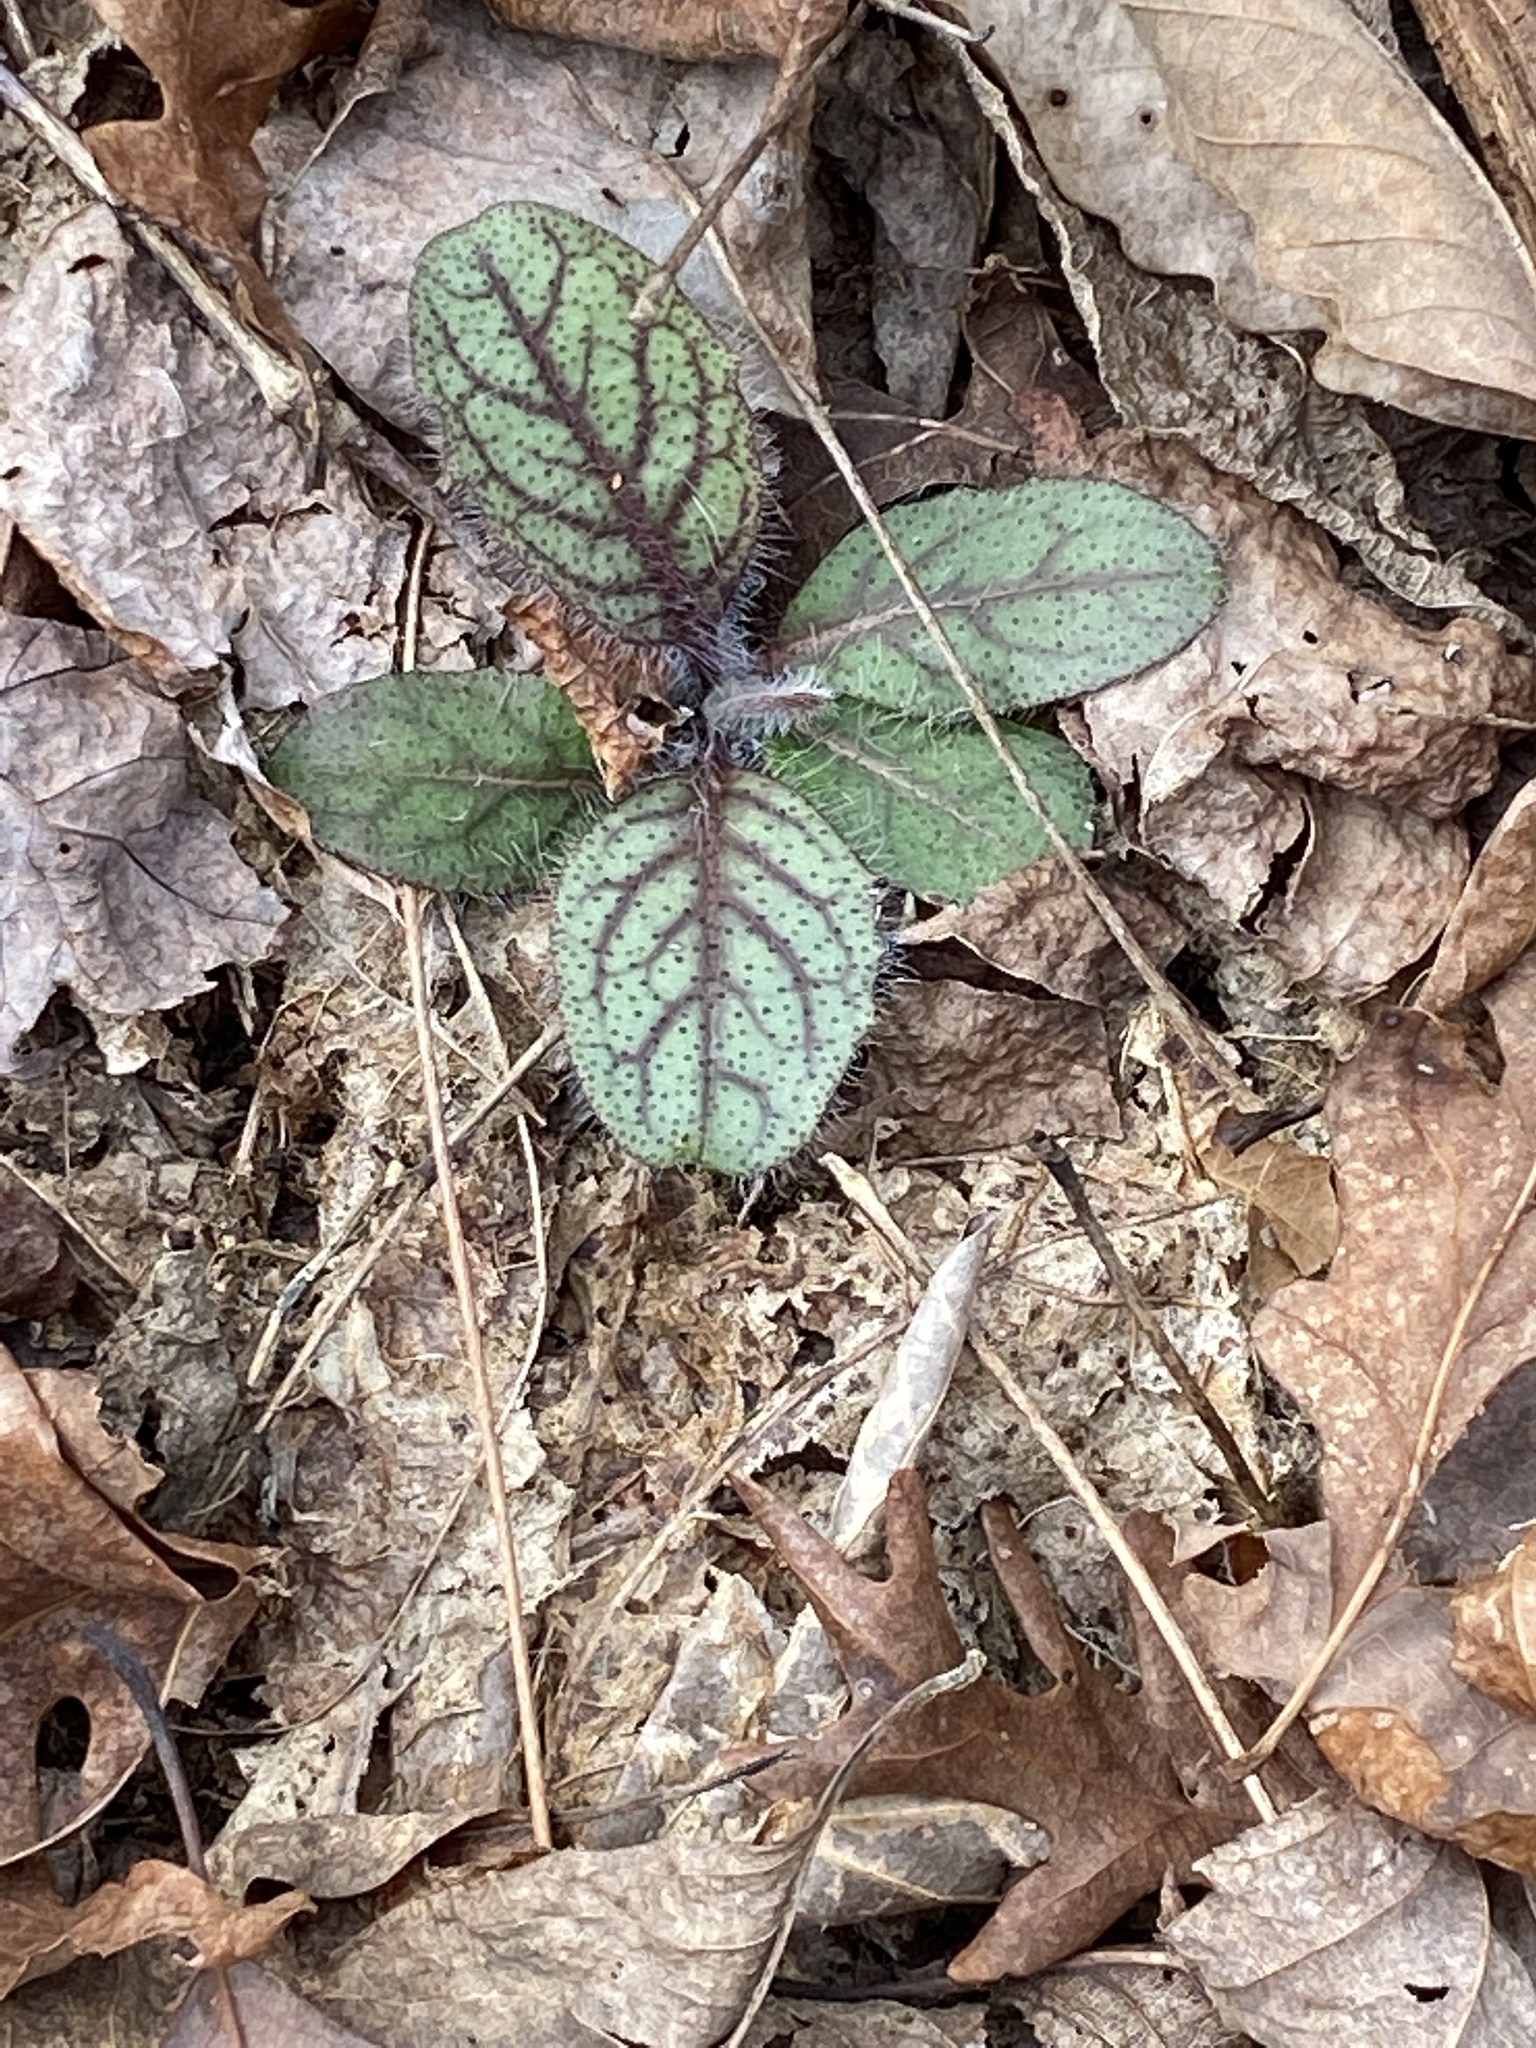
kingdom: Plantae
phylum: Tracheophyta
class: Magnoliopsida
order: Asterales
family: Asteraceae
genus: Hieracium
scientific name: Hieracium venosum
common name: Rattlesnake hawkweed
